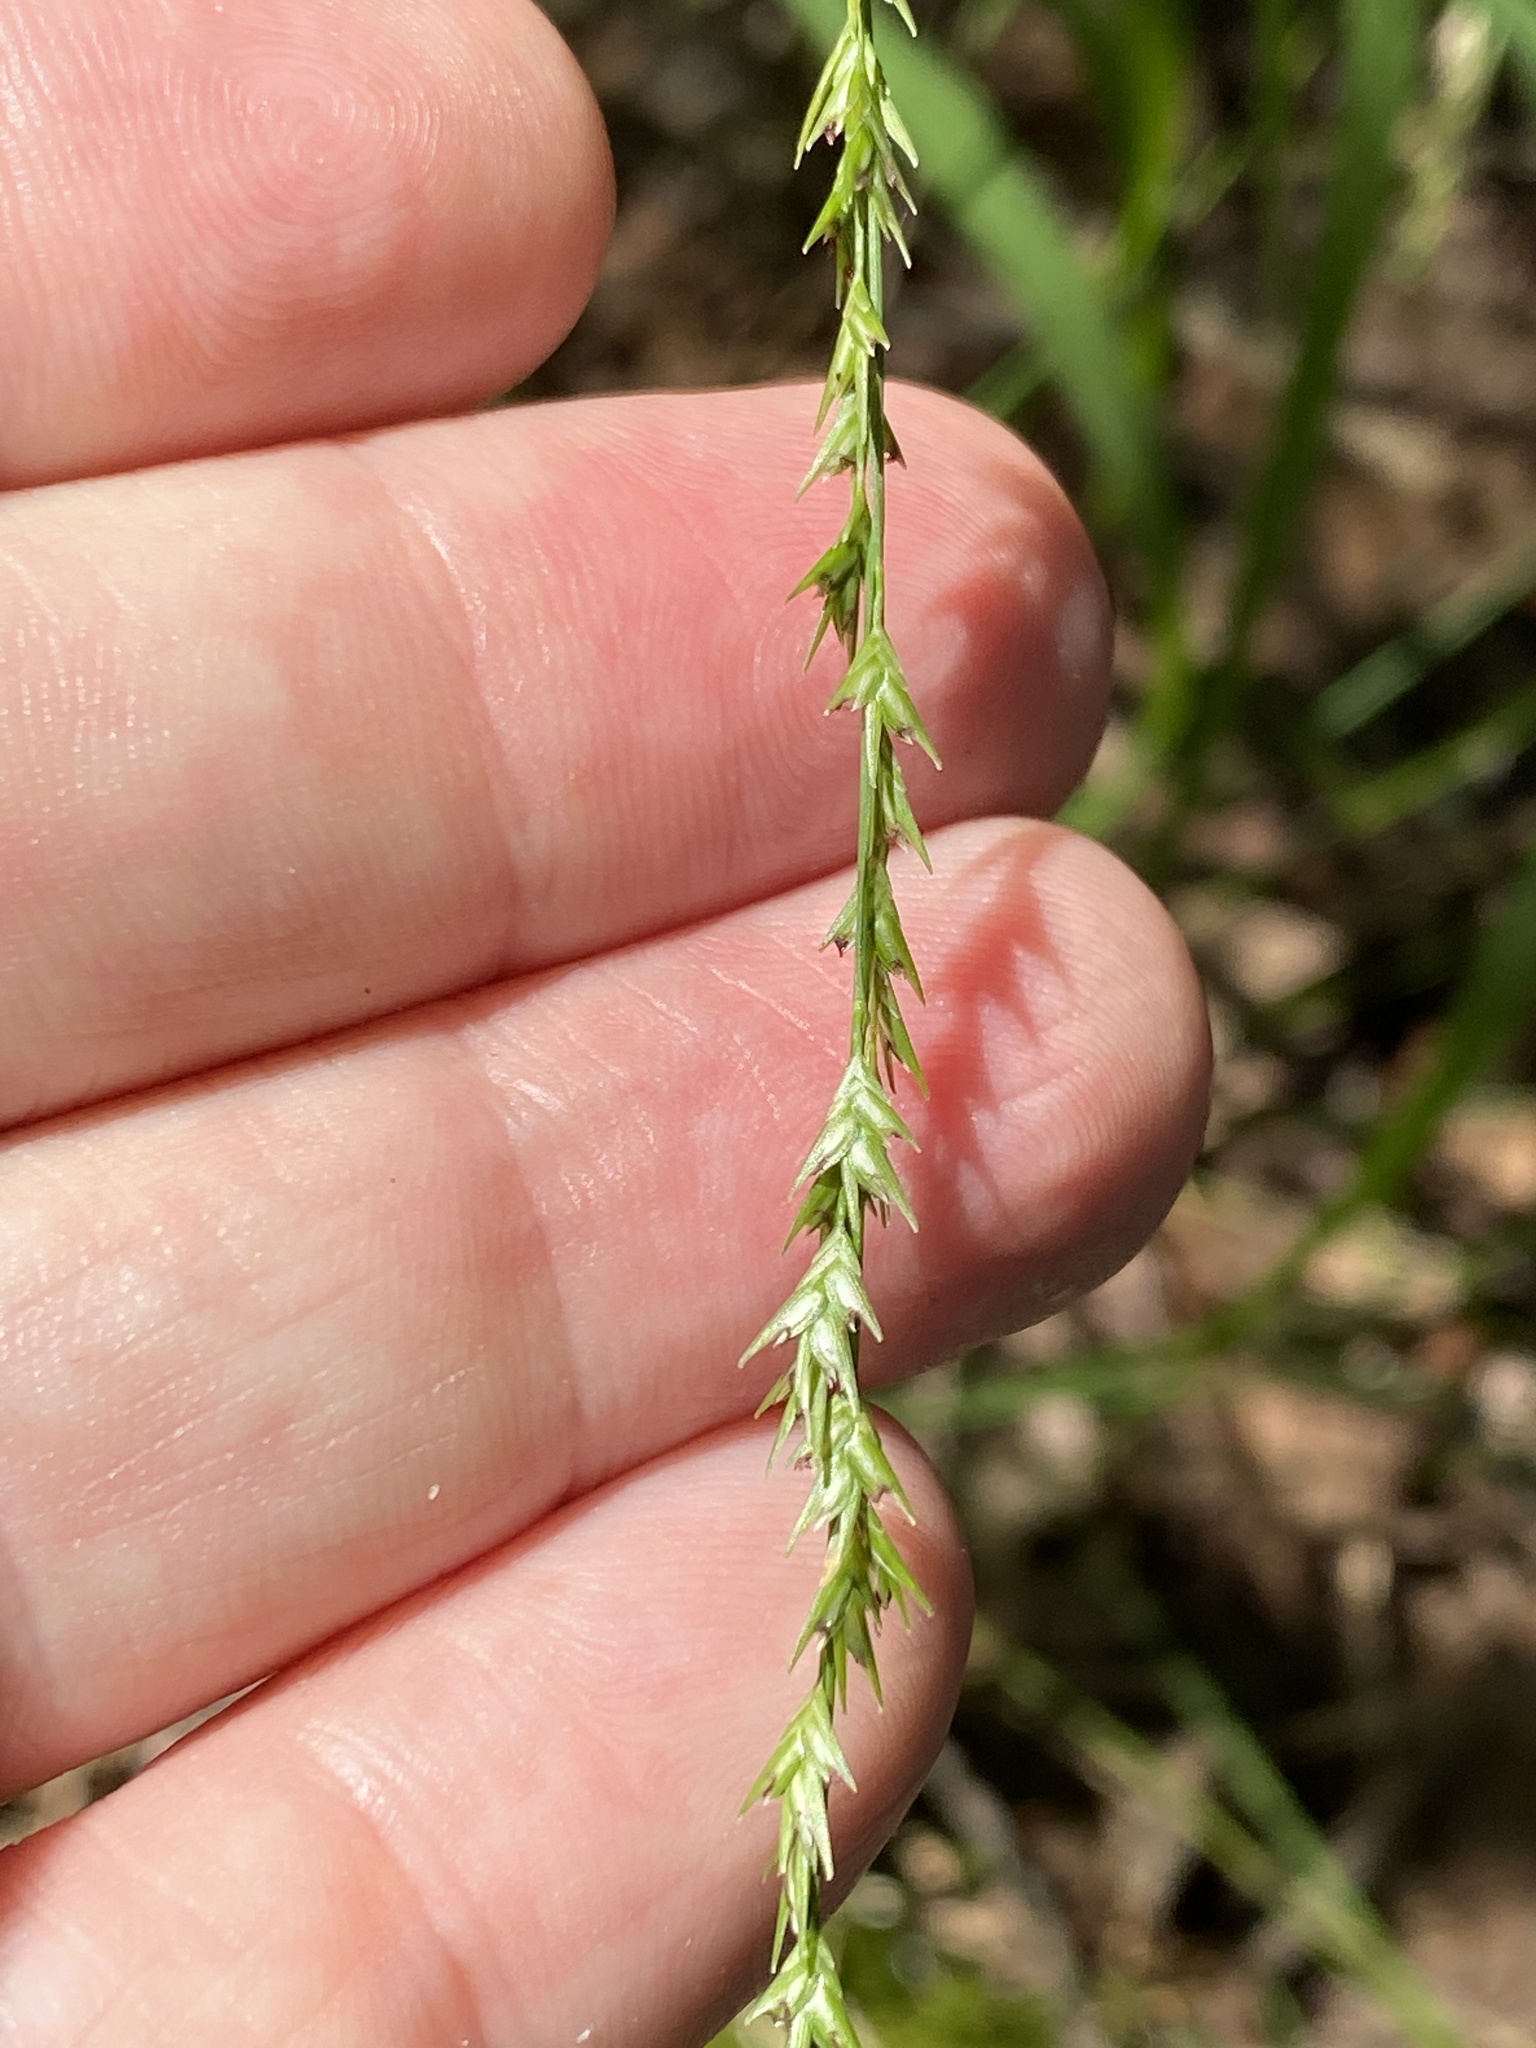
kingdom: Plantae
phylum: Tracheophyta
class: Liliopsida
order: Poales
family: Poaceae
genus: Chasmanthium
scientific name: Chasmanthium laxum
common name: Slender chasmanthium
